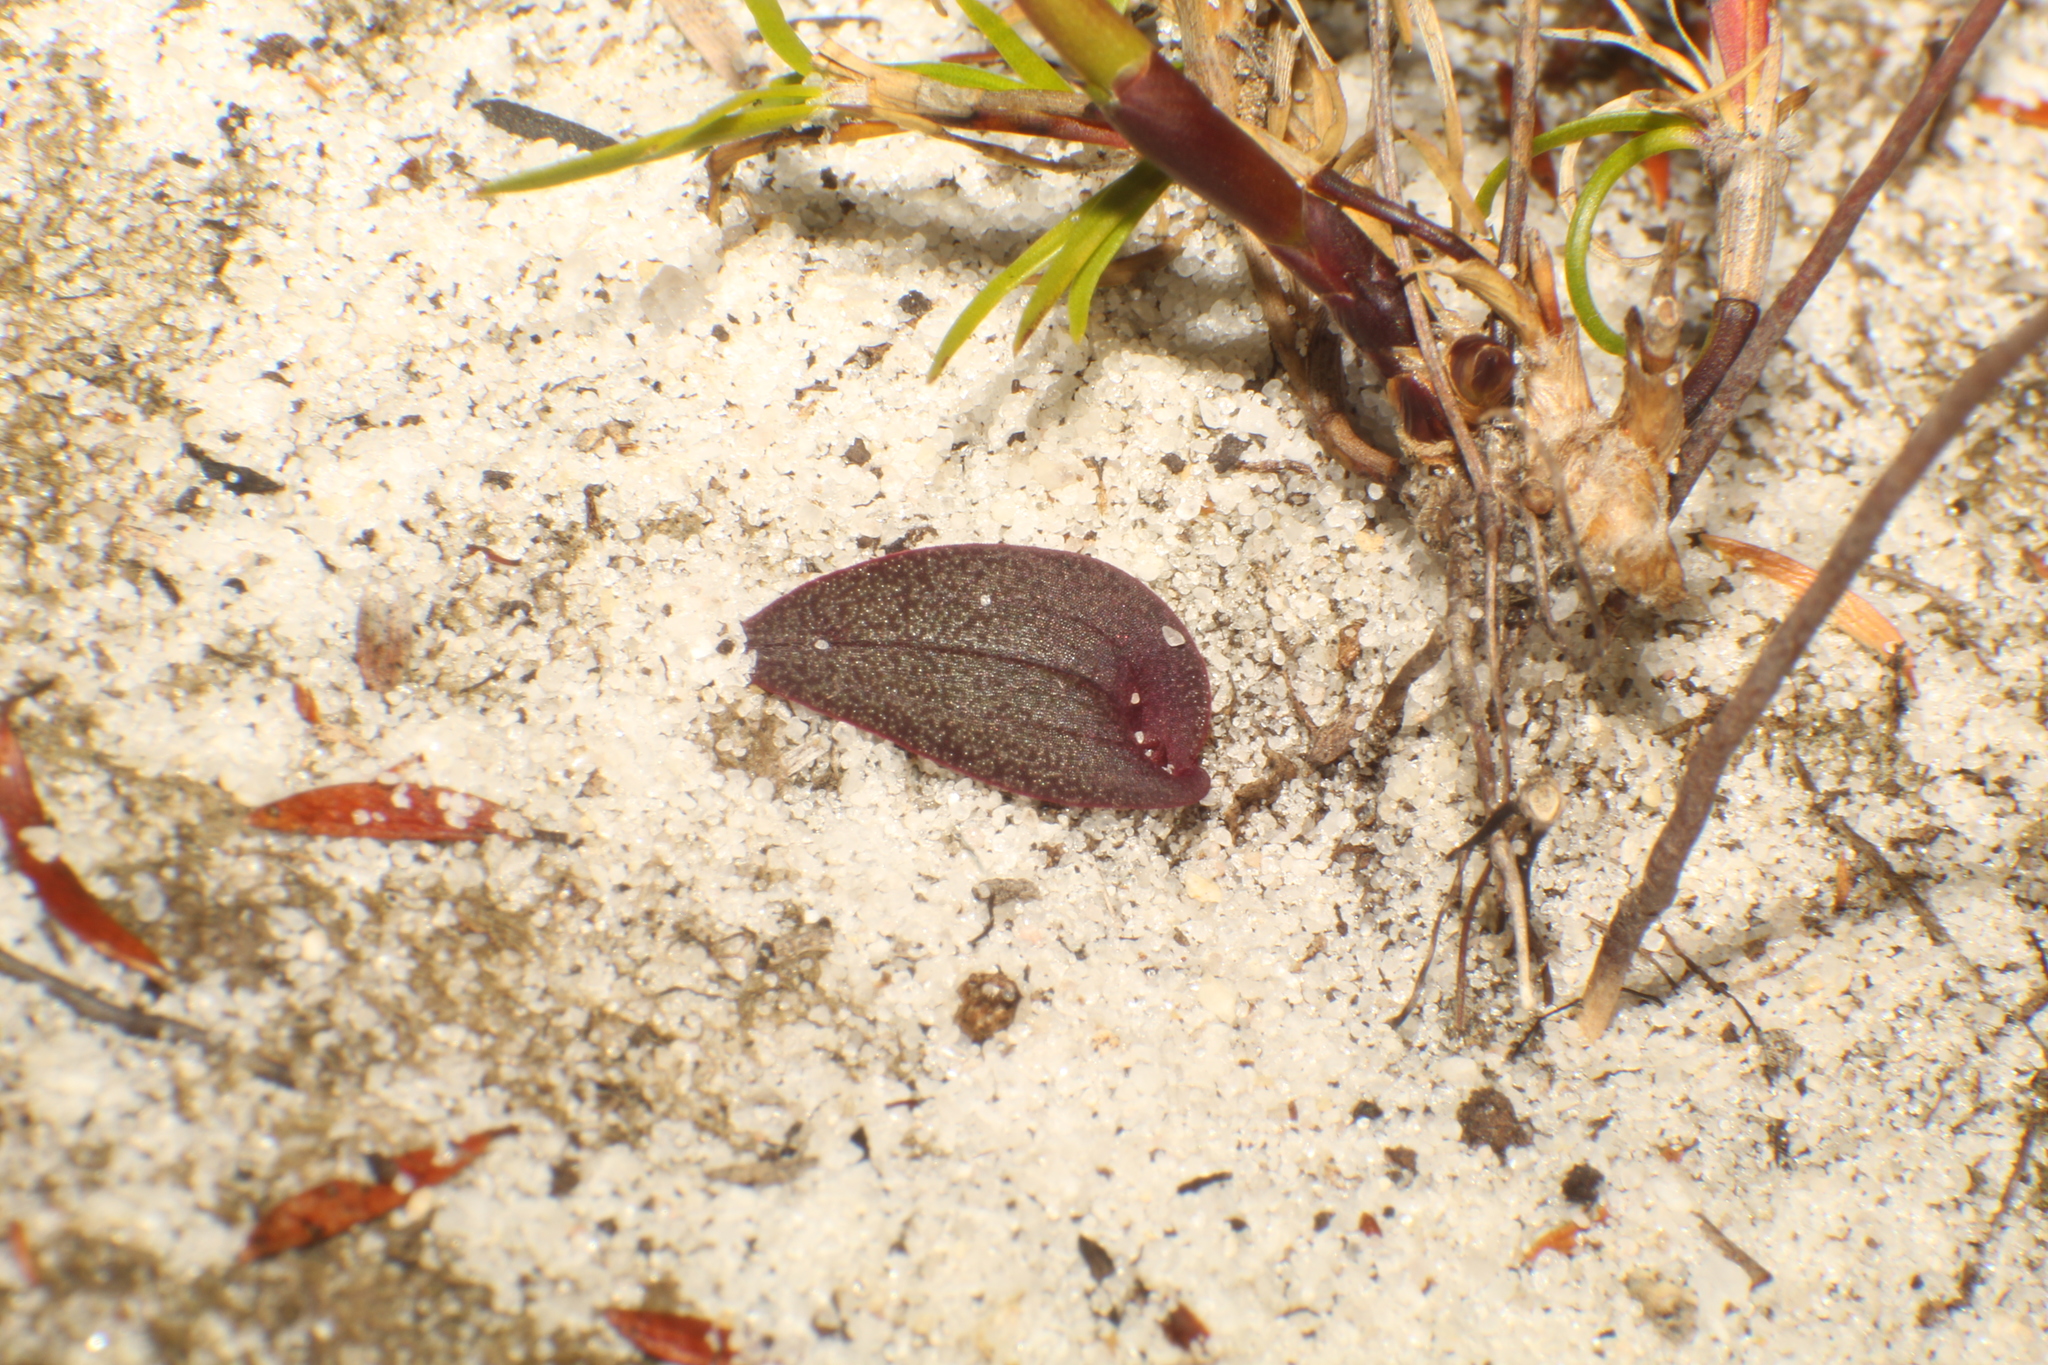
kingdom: Plantae
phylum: Tracheophyta
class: Liliopsida
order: Asparagales
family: Orchidaceae
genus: Caleana
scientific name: Caleana nigrita
